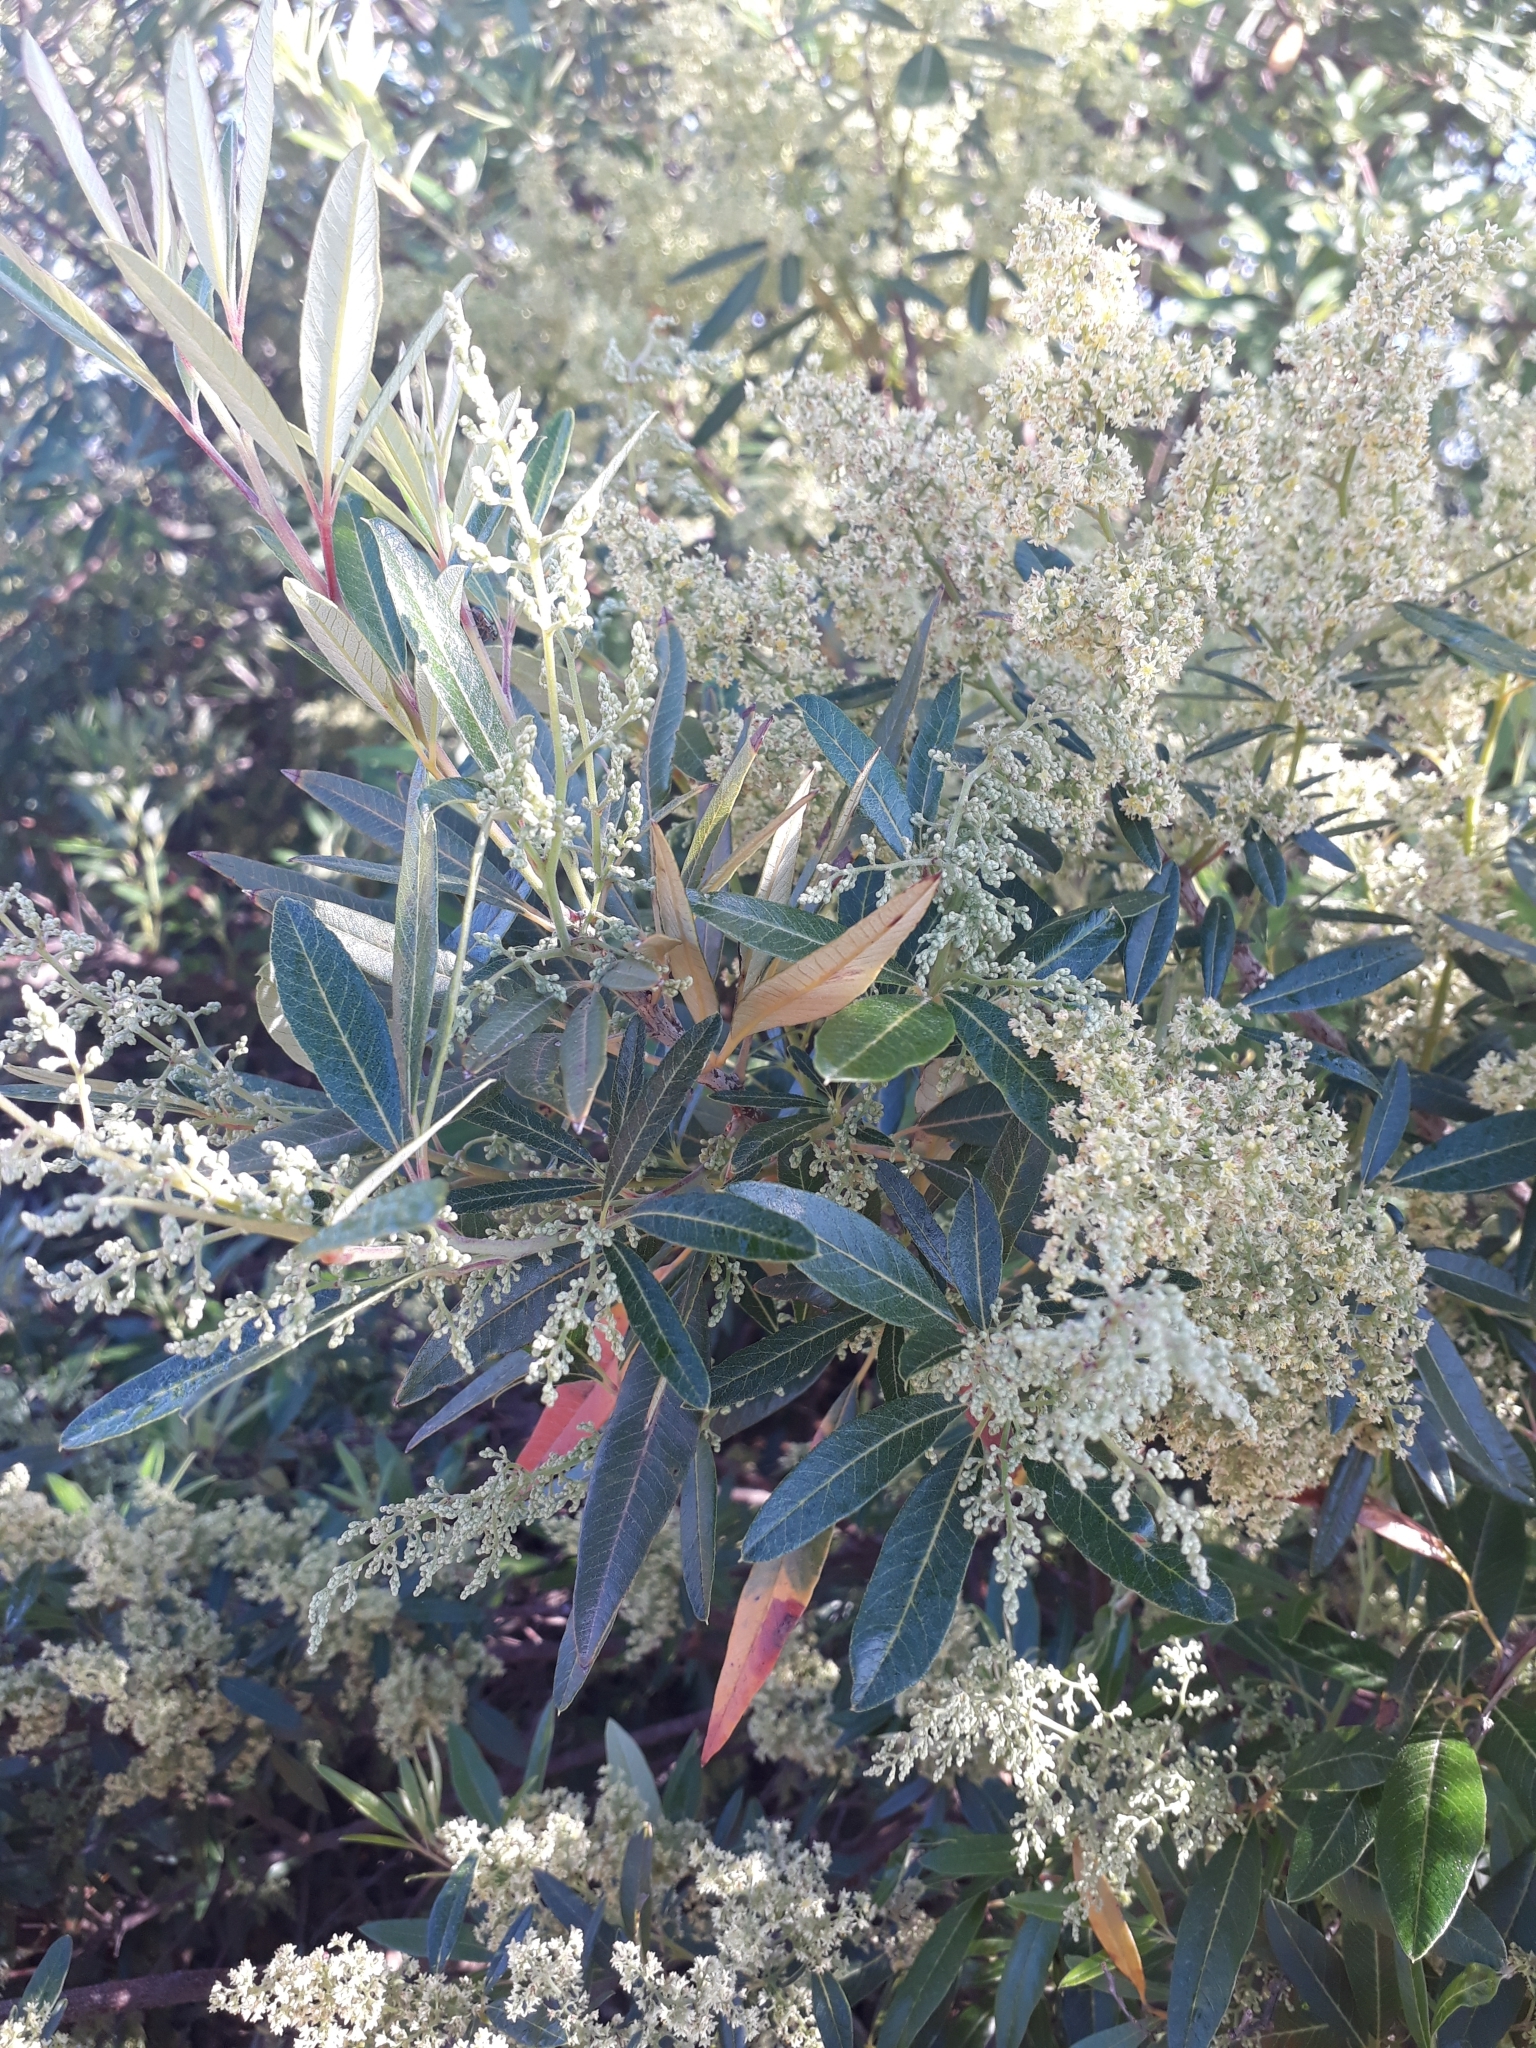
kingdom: Plantae
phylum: Tracheophyta
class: Magnoliopsida
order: Sapindales
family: Anacardiaceae
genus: Searsia
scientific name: Searsia angustifolia
